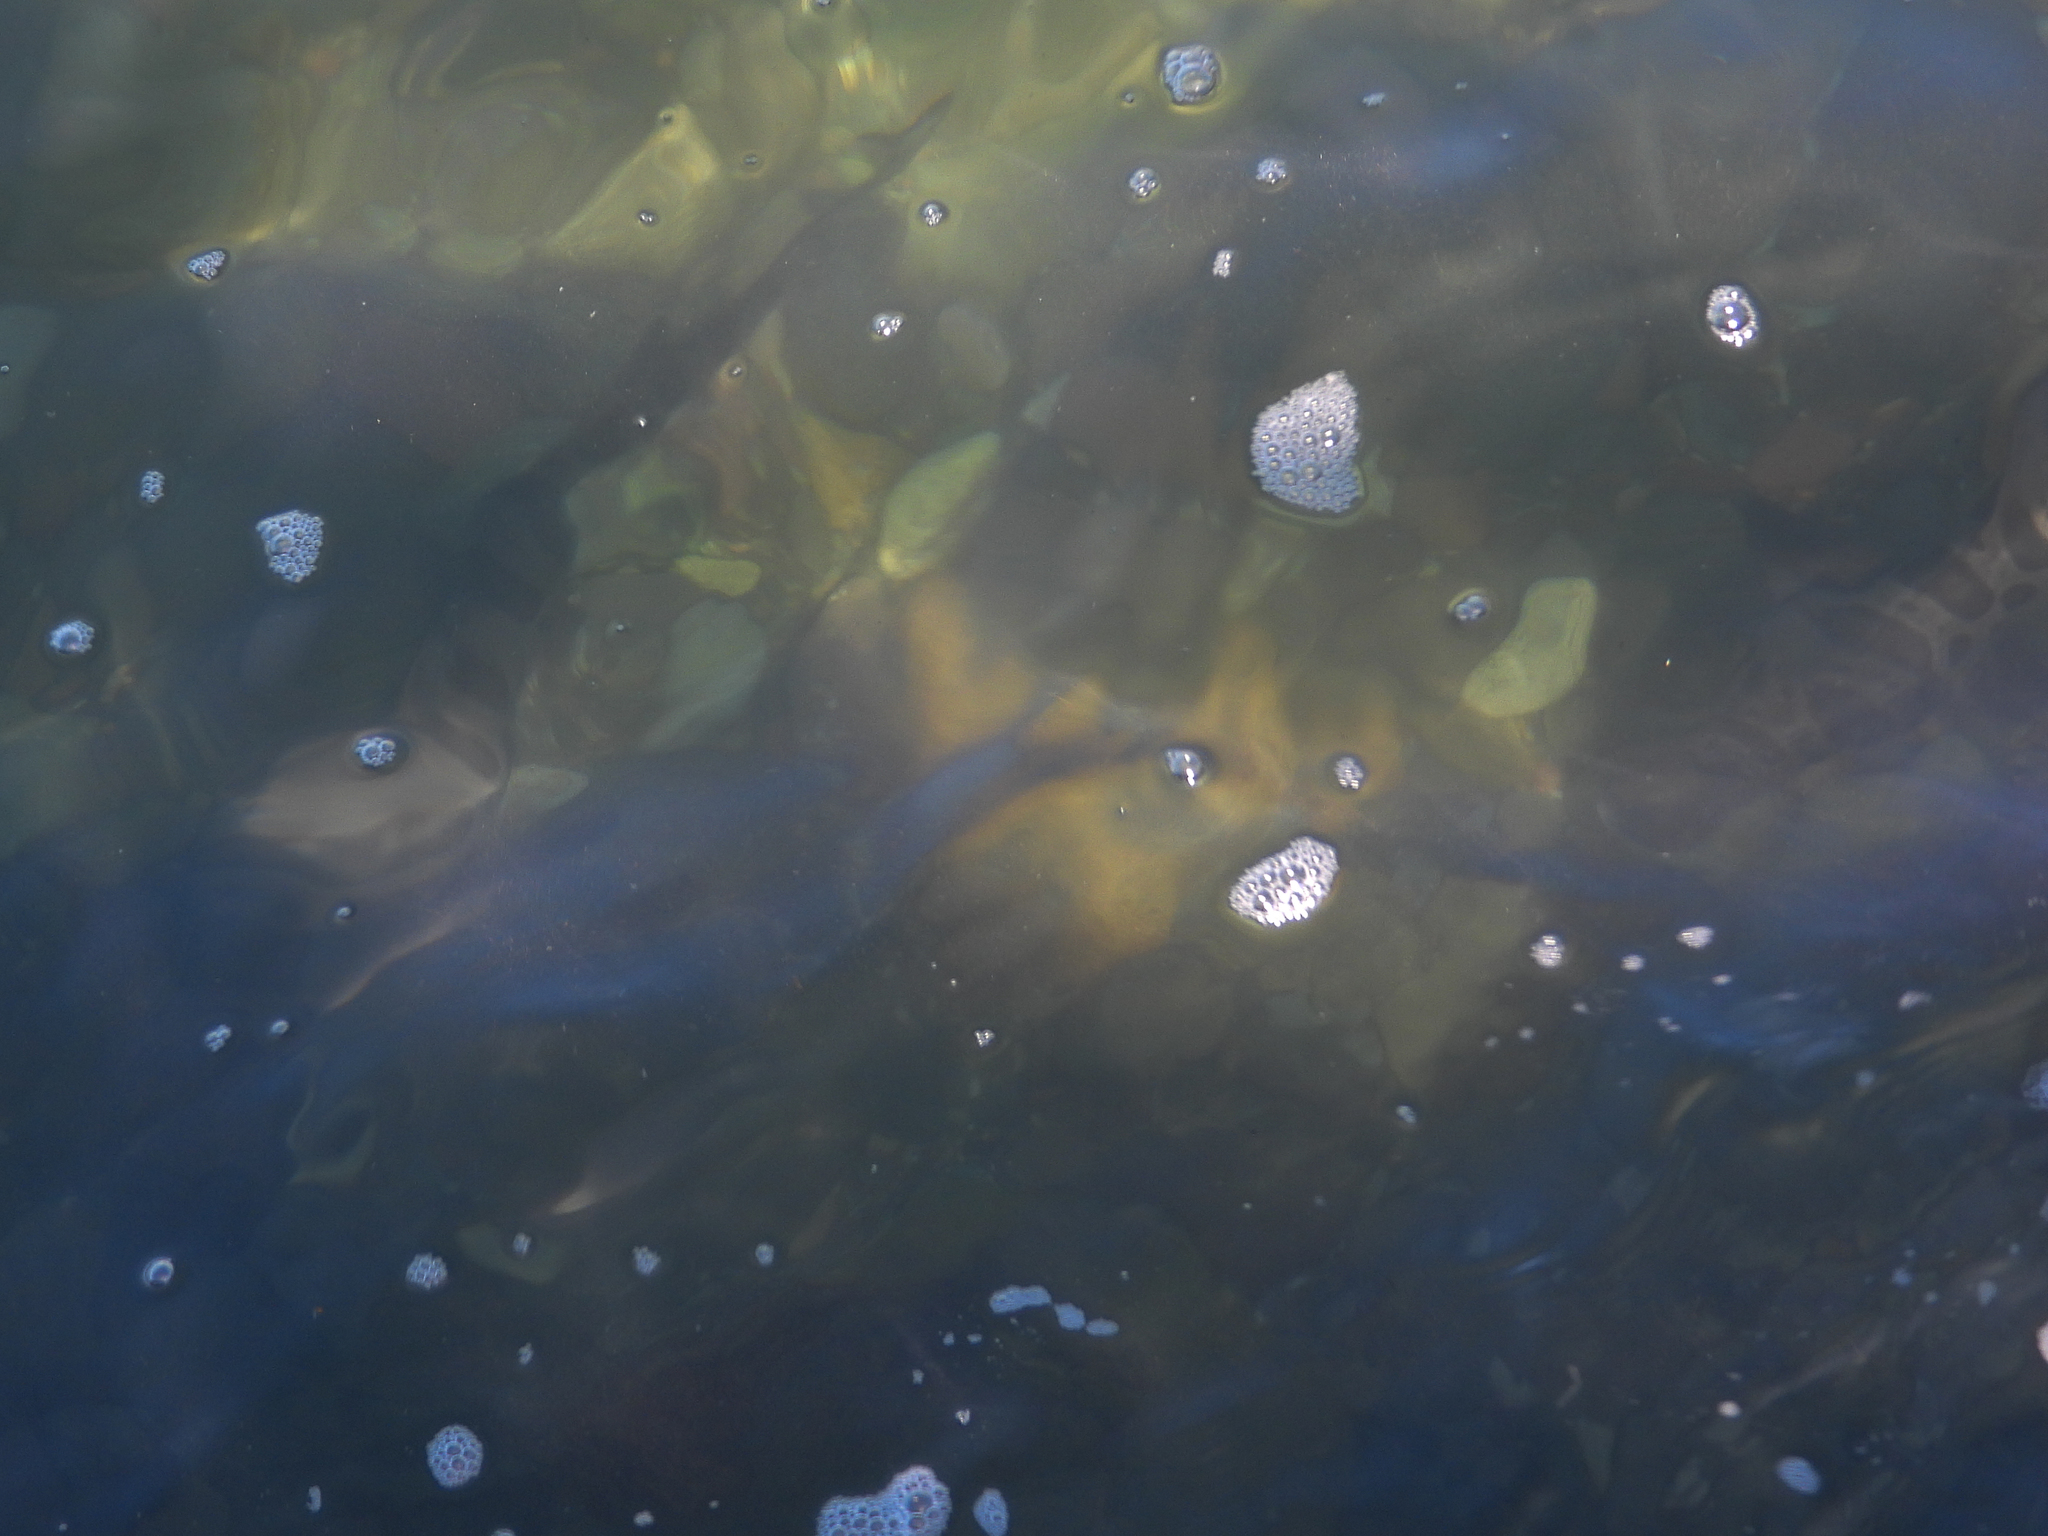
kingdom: Animalia
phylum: Chordata
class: Elasmobranchii
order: Carcharhiniformes
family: Triakidae
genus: Triakis
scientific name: Triakis semifasciata
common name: Leopard shark
